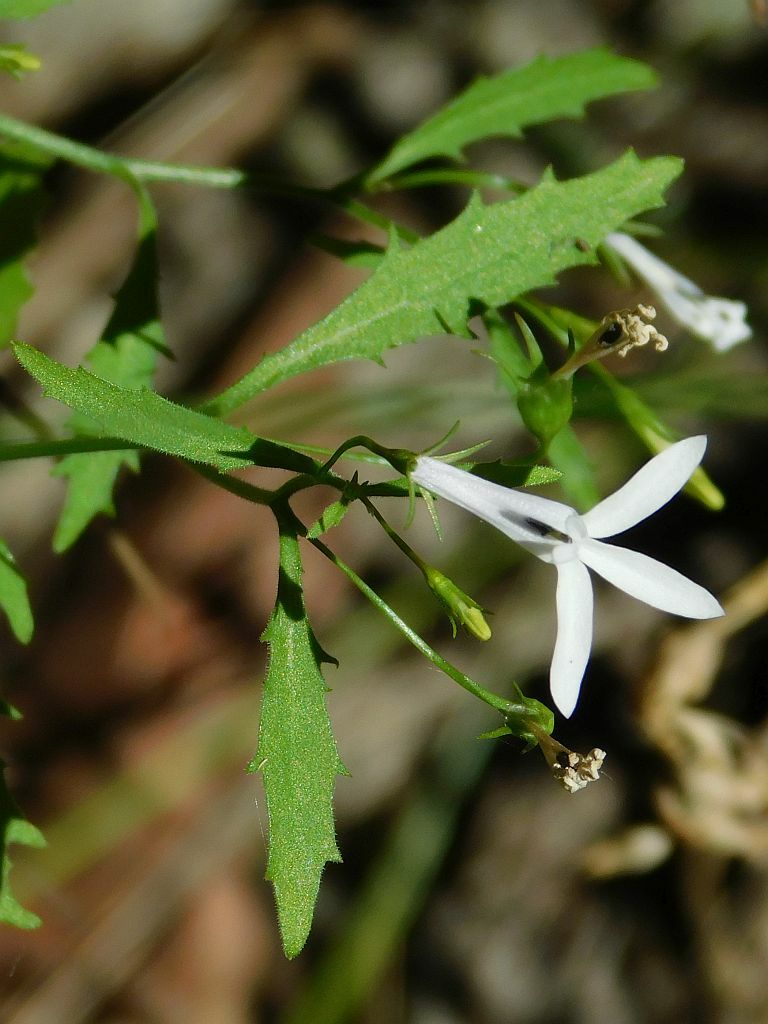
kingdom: Plantae
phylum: Tracheophyta
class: Magnoliopsida
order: Asterales
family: Campanulaceae
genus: Lobelia
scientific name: Lobelia pubescens
